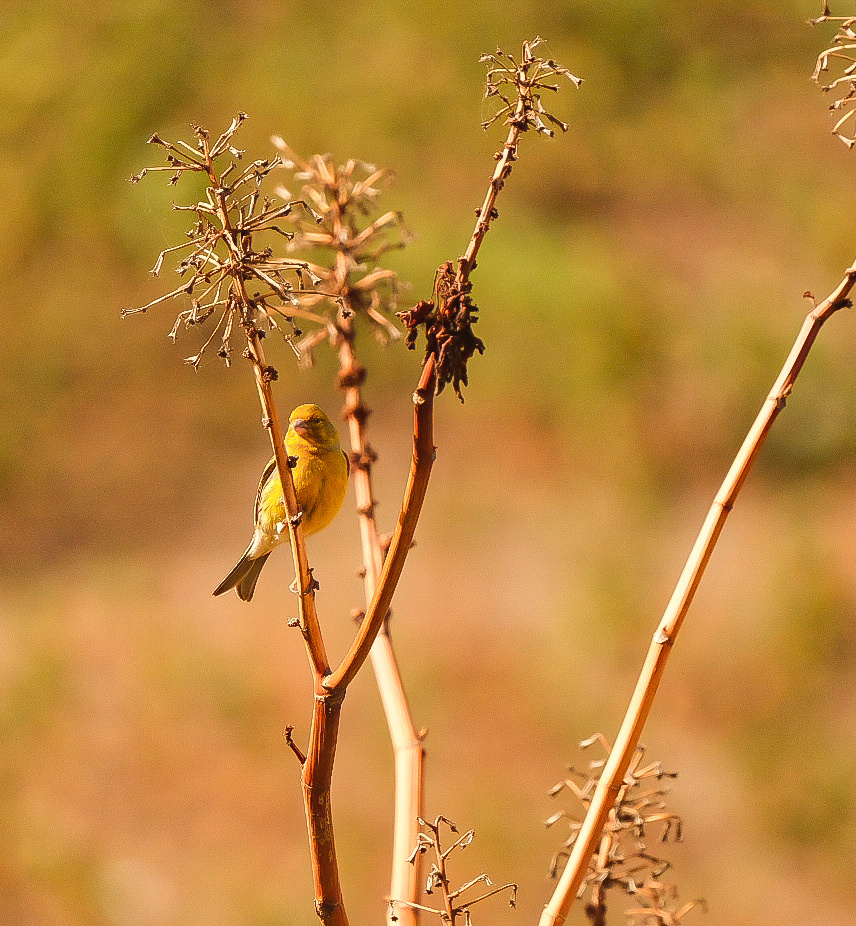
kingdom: Animalia
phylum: Chordata
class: Aves
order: Passeriformes
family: Fringillidae
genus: Serinus
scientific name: Serinus canaria
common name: Atlantic canary
